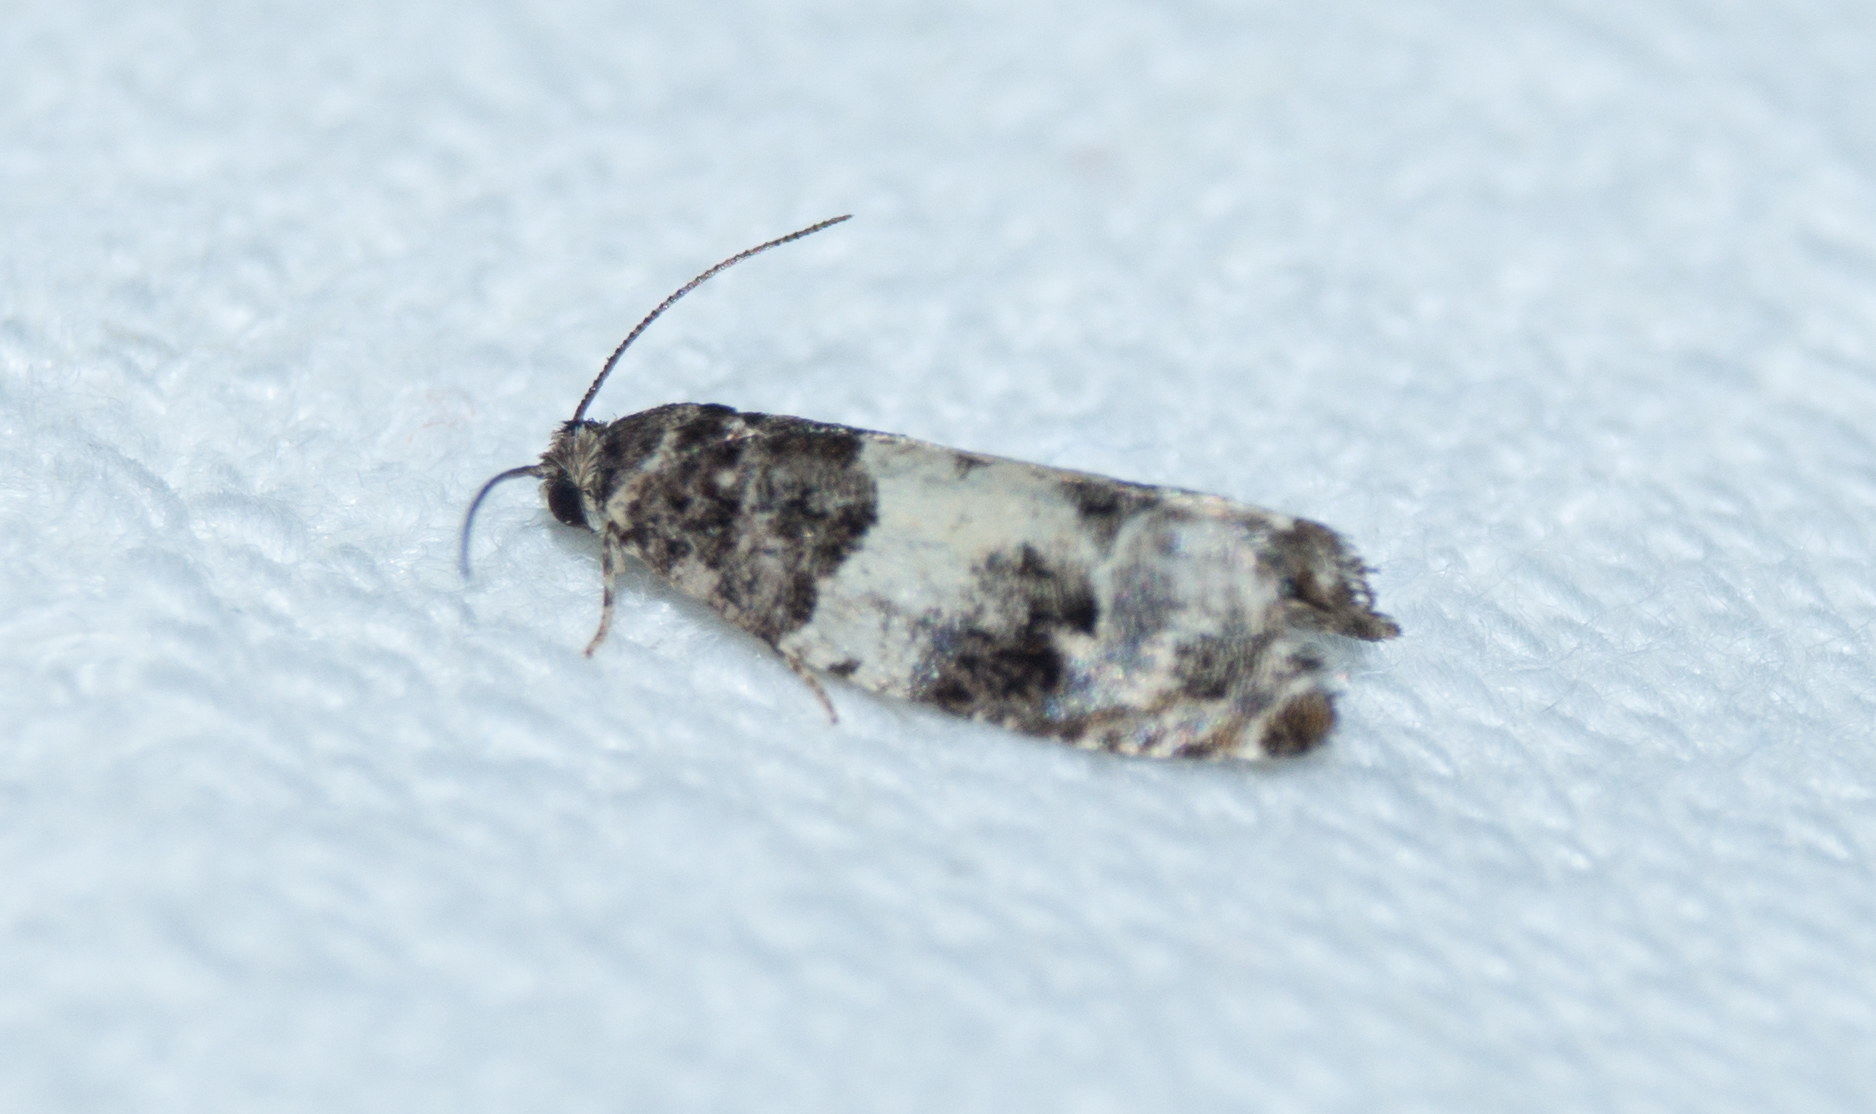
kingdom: Animalia
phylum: Arthropoda
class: Insecta
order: Lepidoptera
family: Tortricidae
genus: Gypsonoma
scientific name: Gypsonoma sociana
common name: White cloaked shoot
